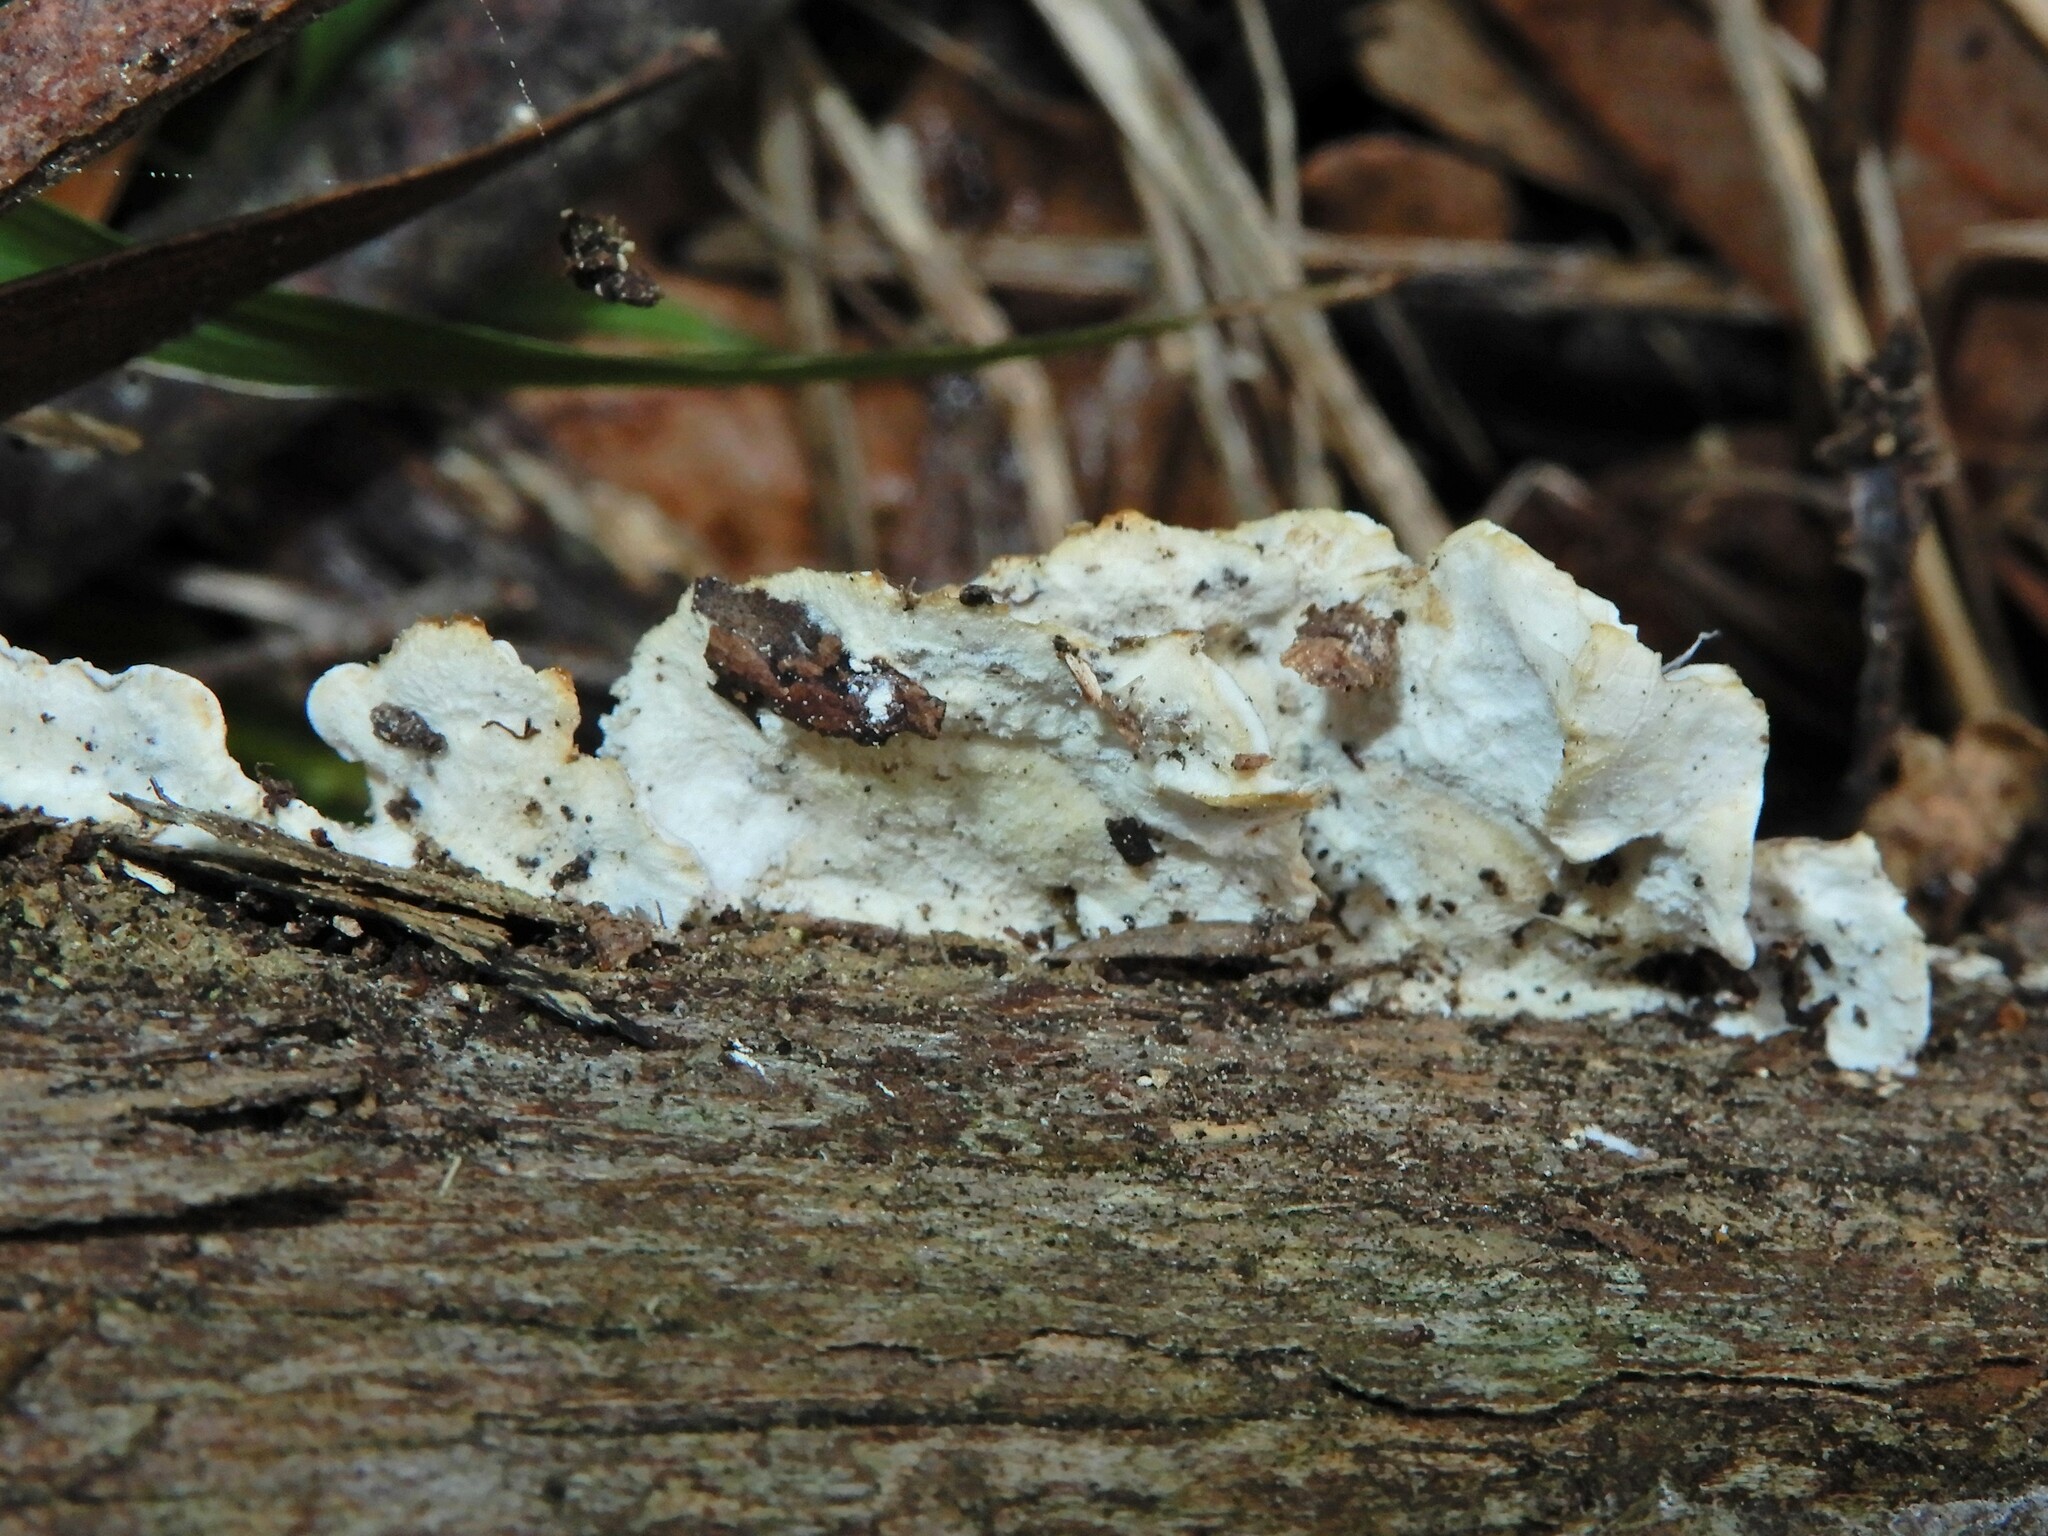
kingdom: Fungi
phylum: Basidiomycota
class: Agaricomycetes
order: Polyporales
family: Irpicaceae
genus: Vitreoporus
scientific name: Vitreoporus dichrous
